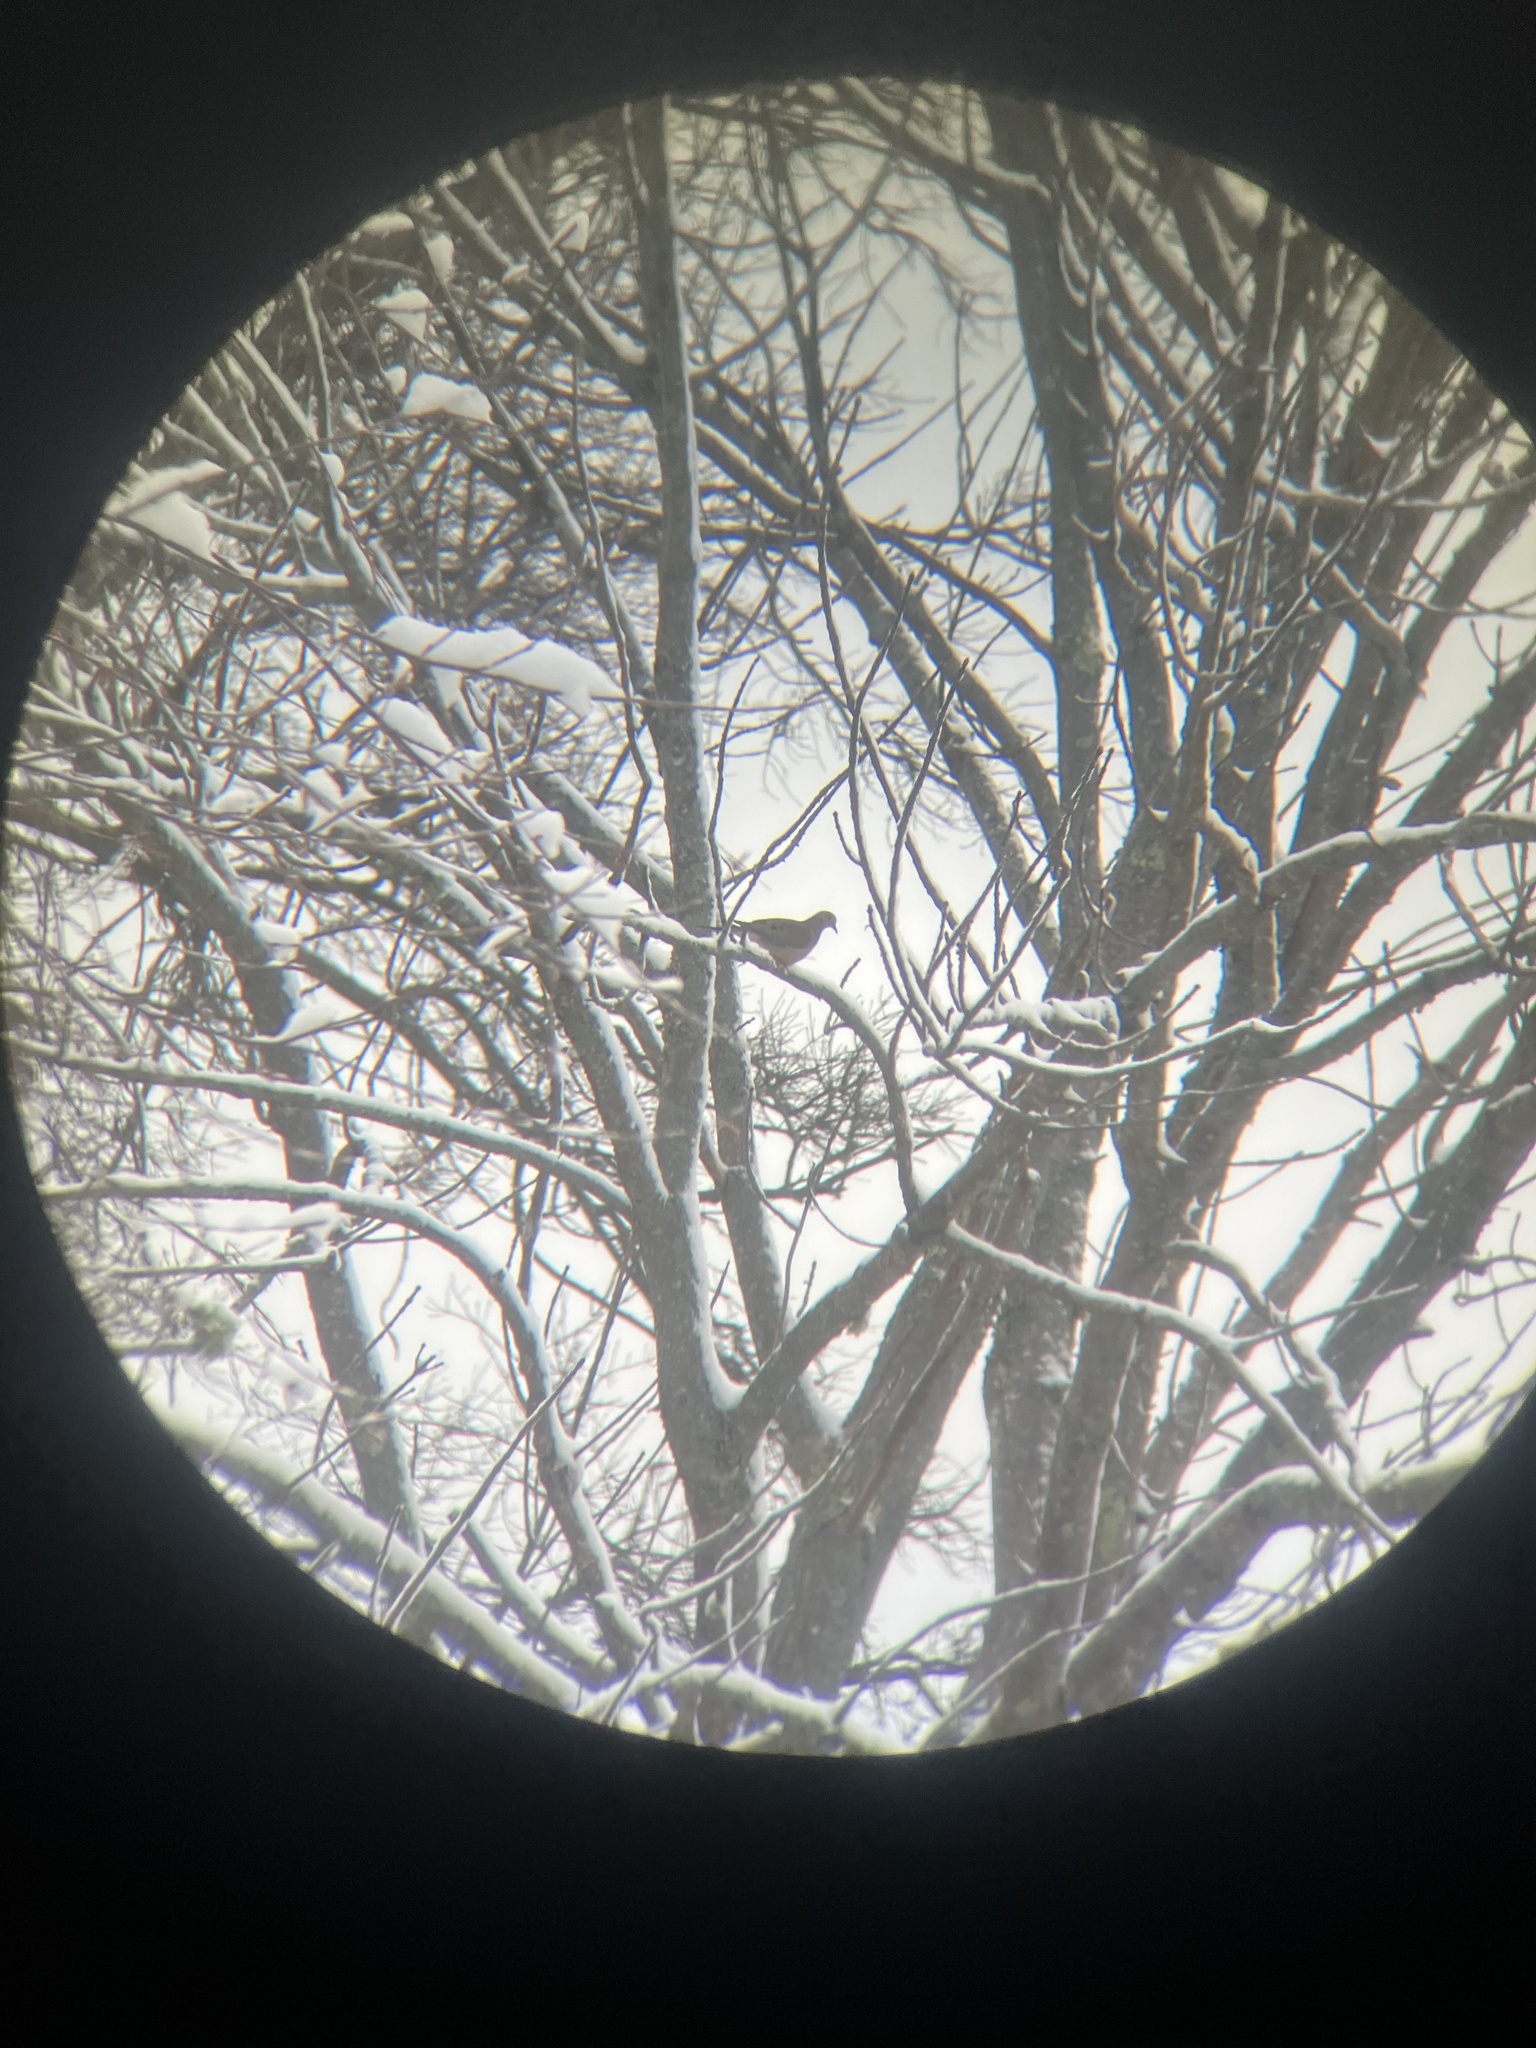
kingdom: Animalia
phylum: Chordata
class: Aves
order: Columbiformes
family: Columbidae
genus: Zenaida
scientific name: Zenaida macroura
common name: Mourning dove
